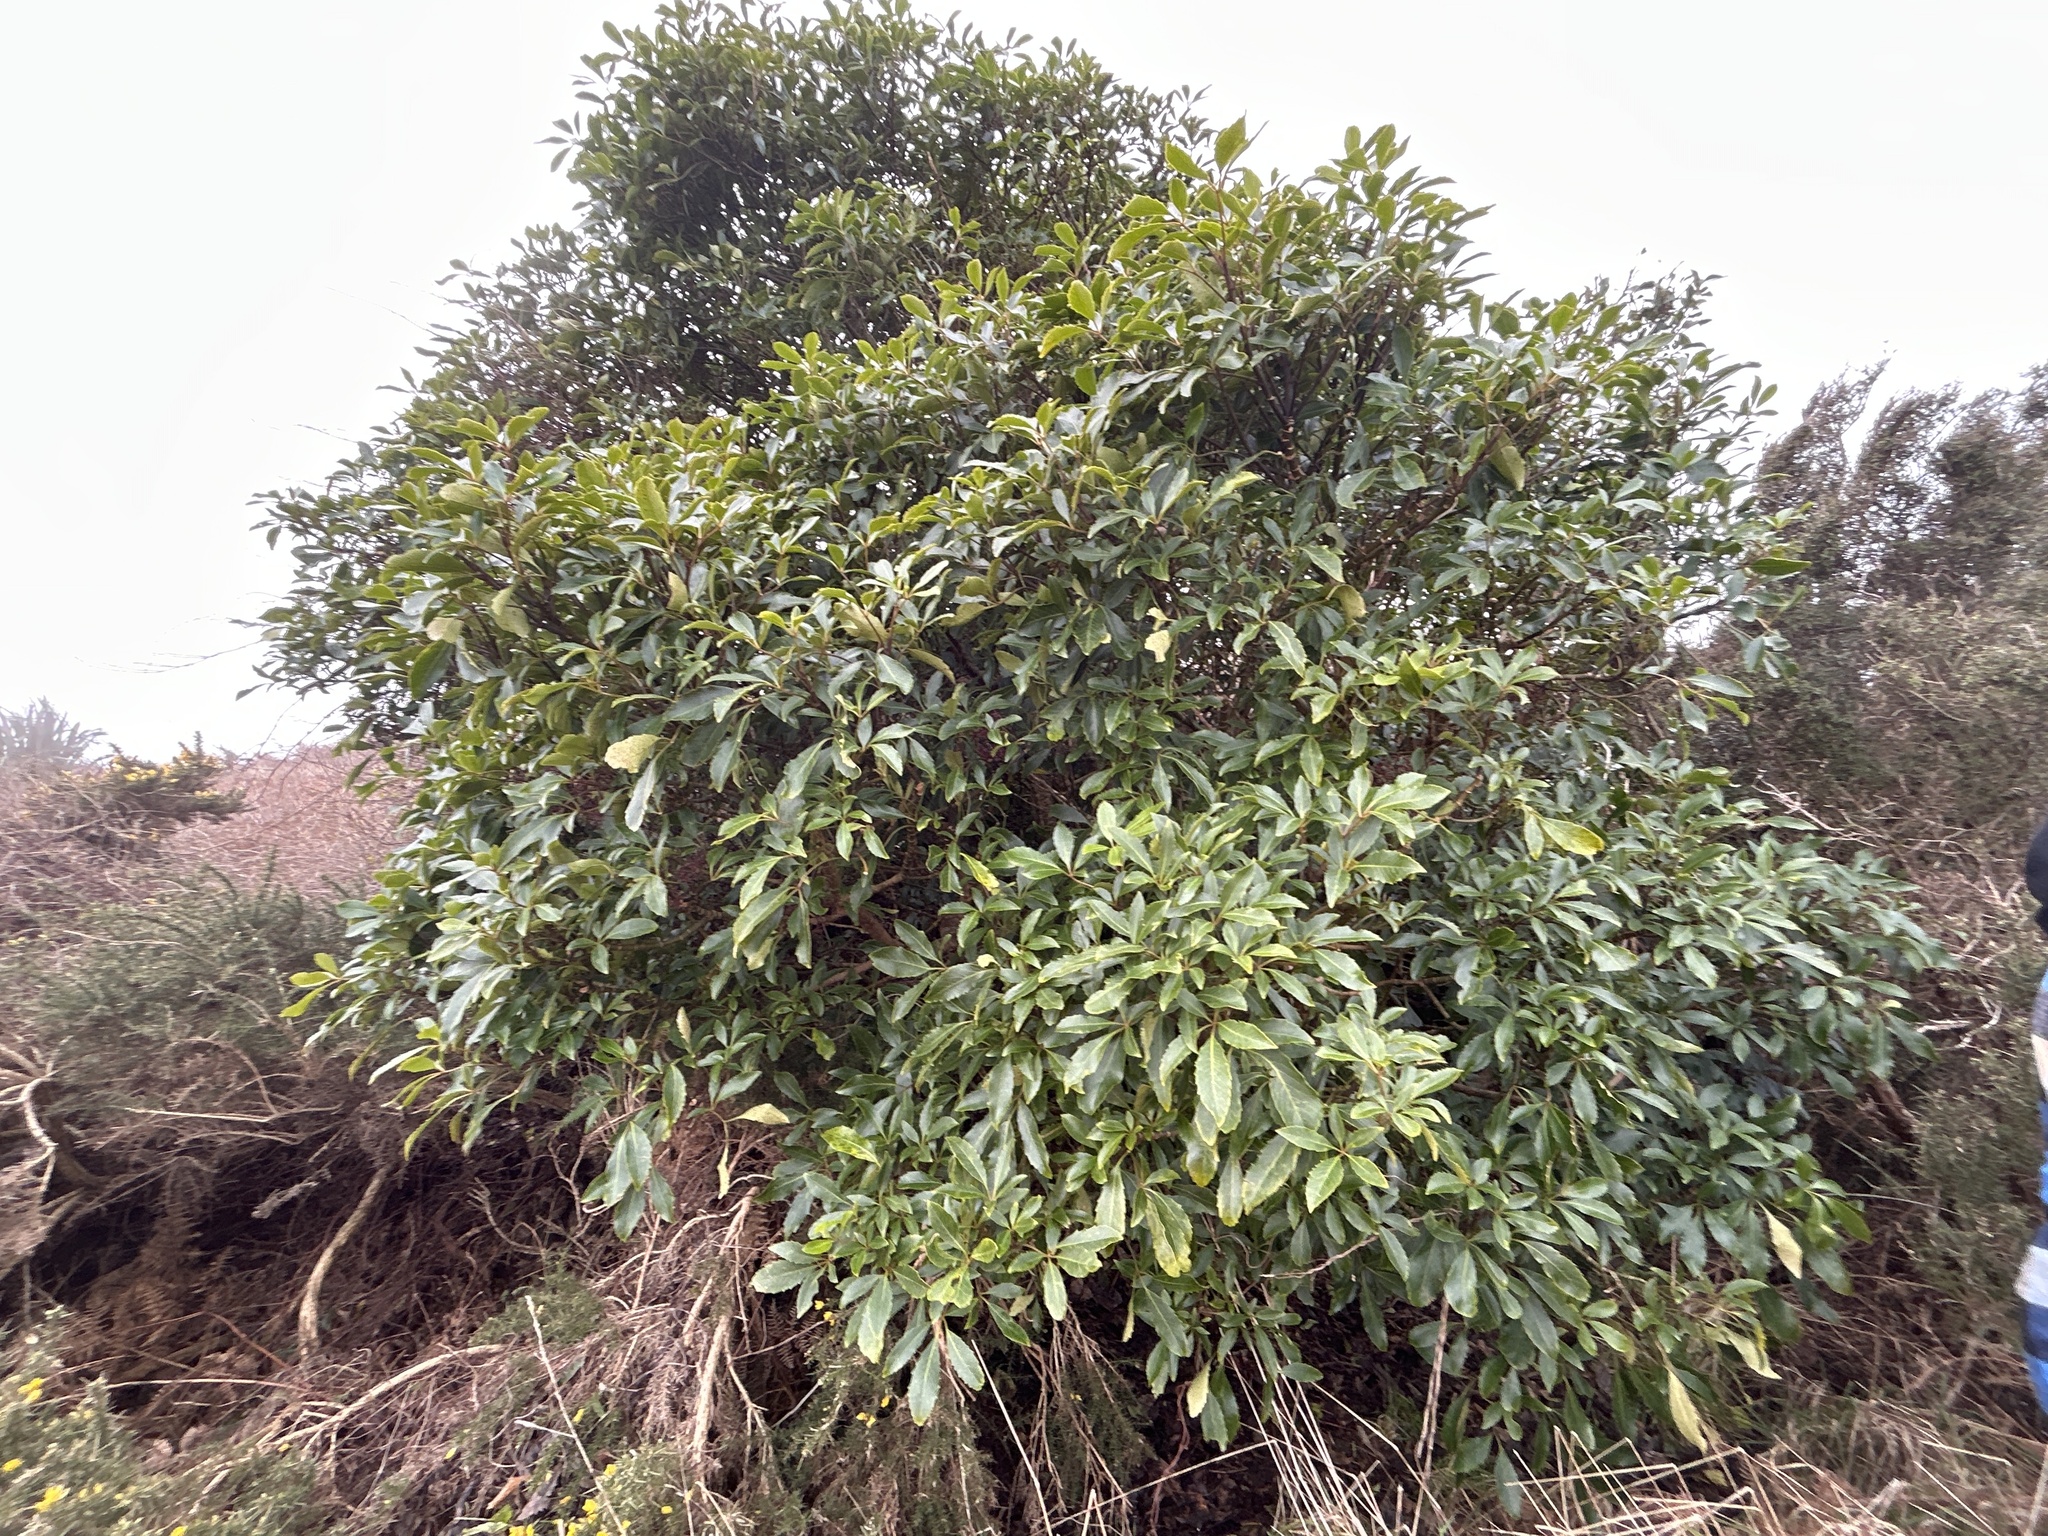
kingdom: Plantae
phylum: Tracheophyta
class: Magnoliopsida
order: Apiales
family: Araliaceae
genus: Neopanax
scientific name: Neopanax arboreus
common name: Five-fingers
